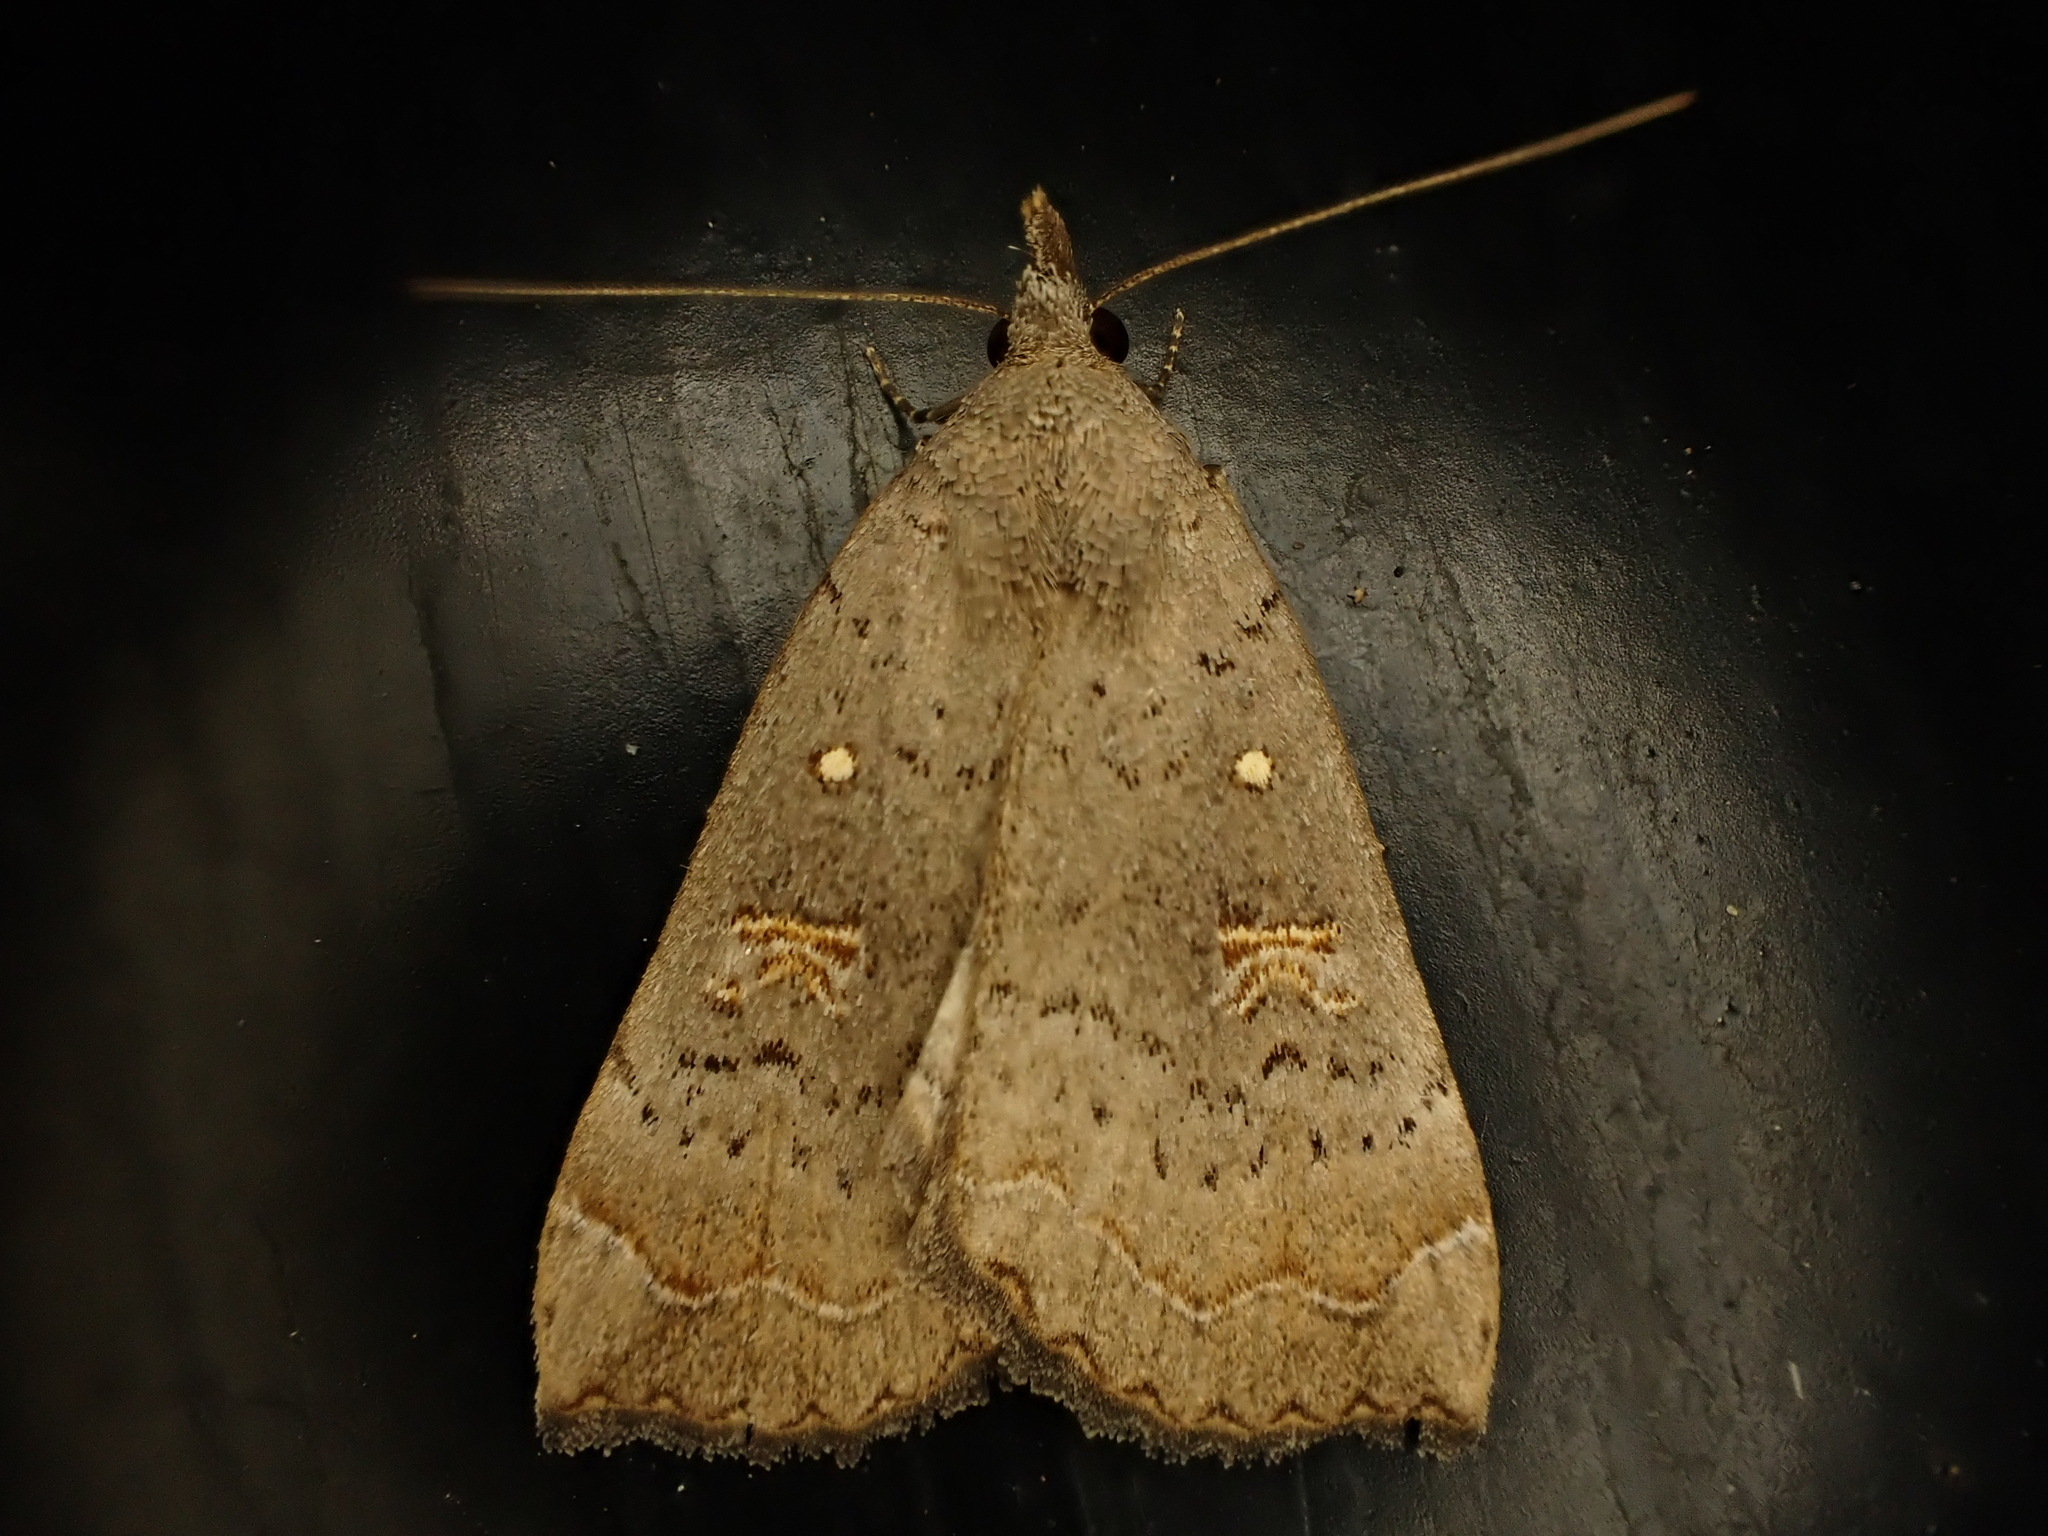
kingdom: Animalia
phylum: Arthropoda
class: Insecta
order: Lepidoptera
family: Erebidae
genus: Rhapsa
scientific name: Rhapsa scotosialis
